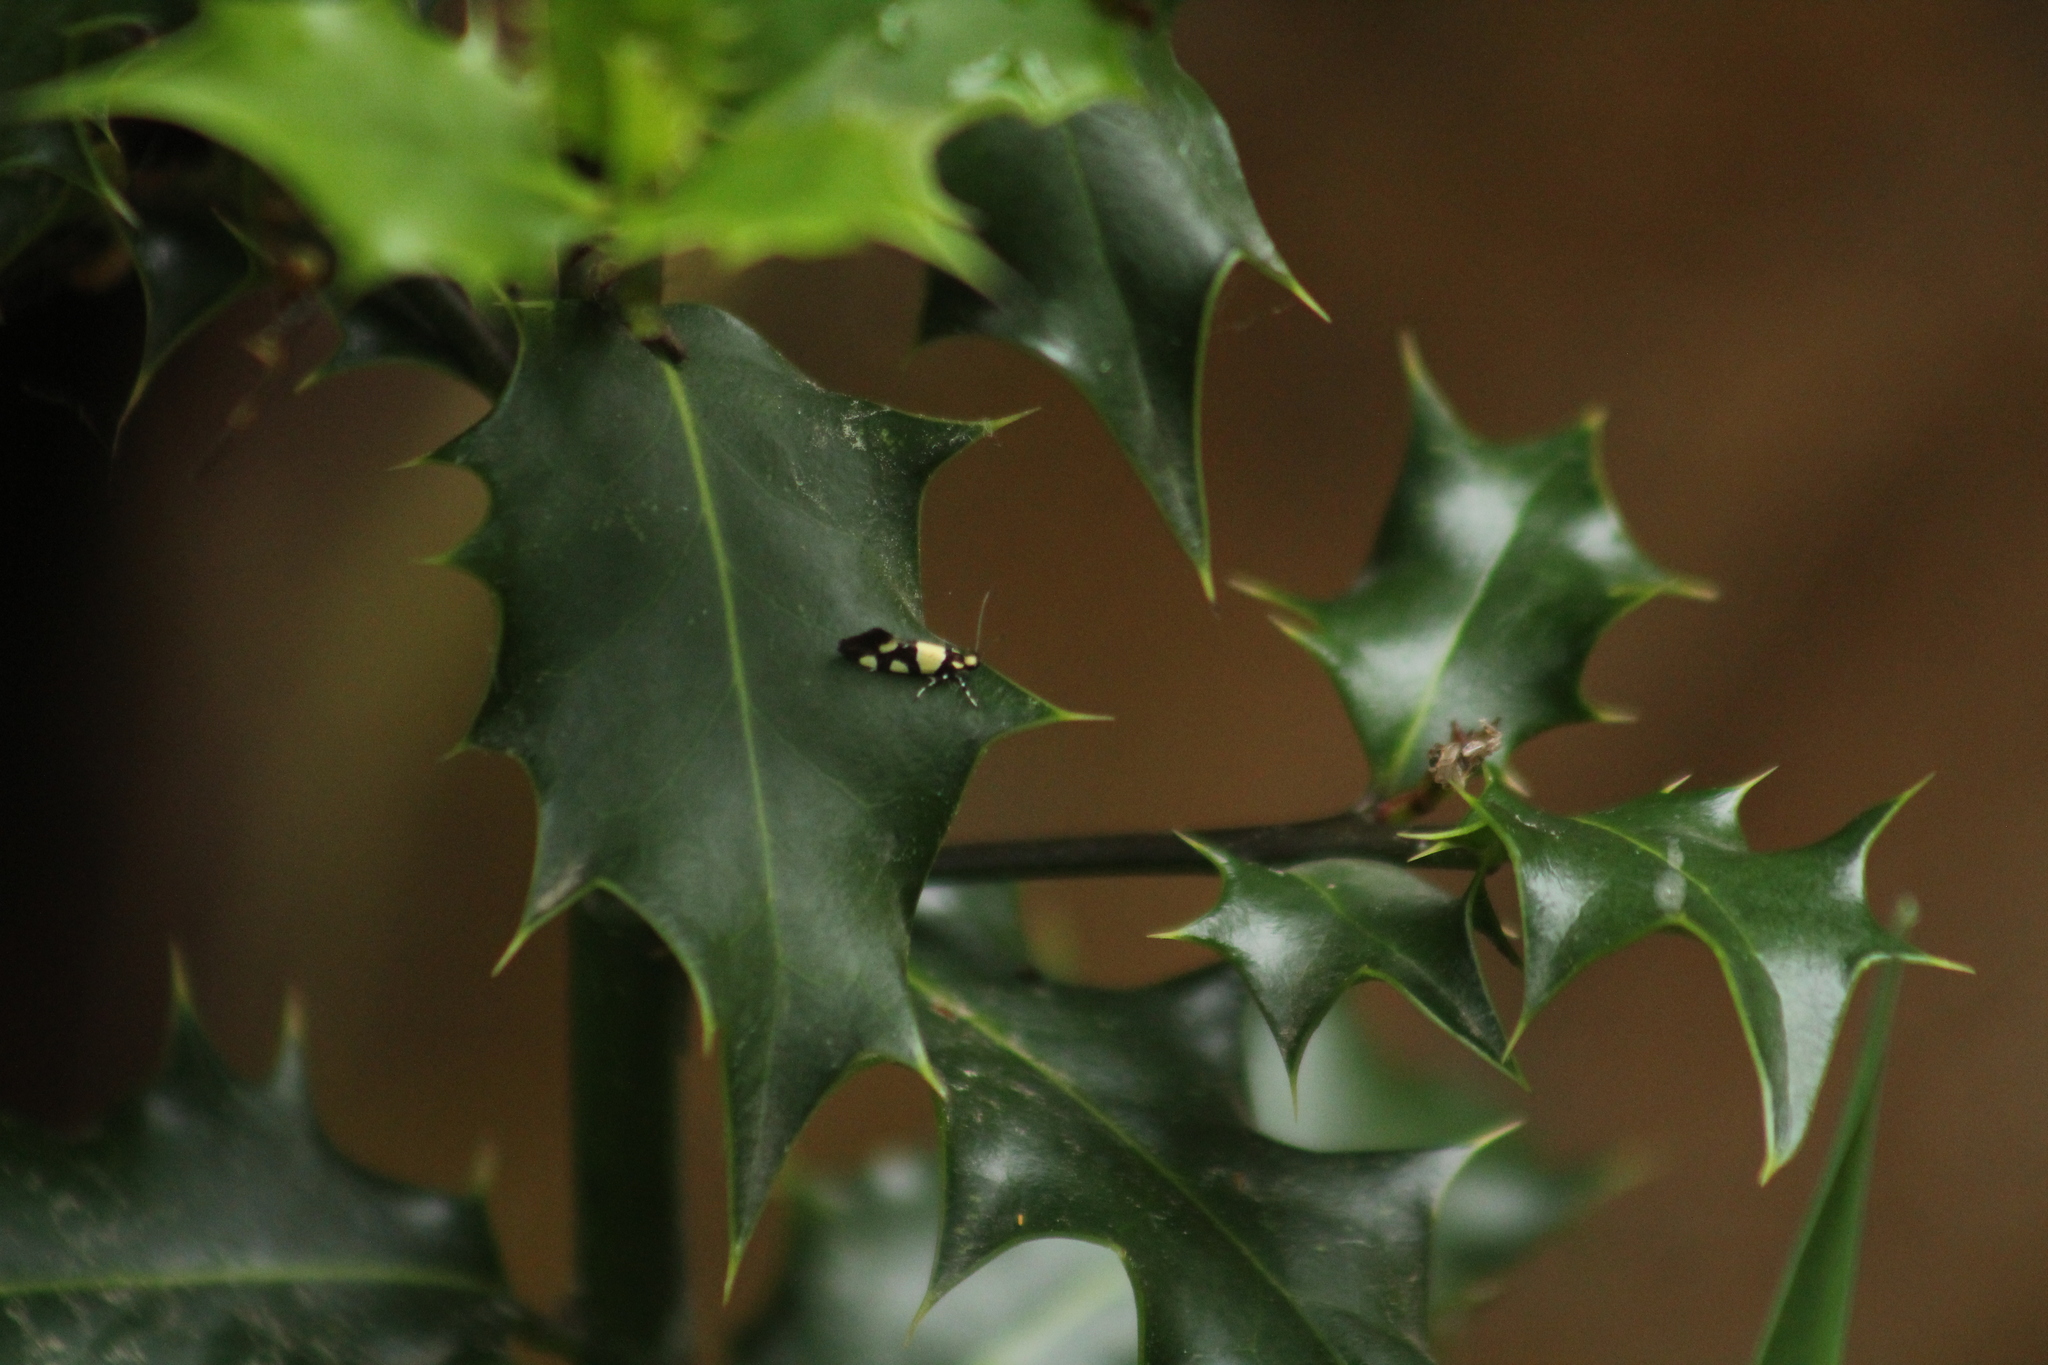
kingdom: Animalia
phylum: Arthropoda
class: Insecta
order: Lepidoptera
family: Oecophoridae
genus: Schiffermuelleria
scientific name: Schiffermuelleria amasiella
